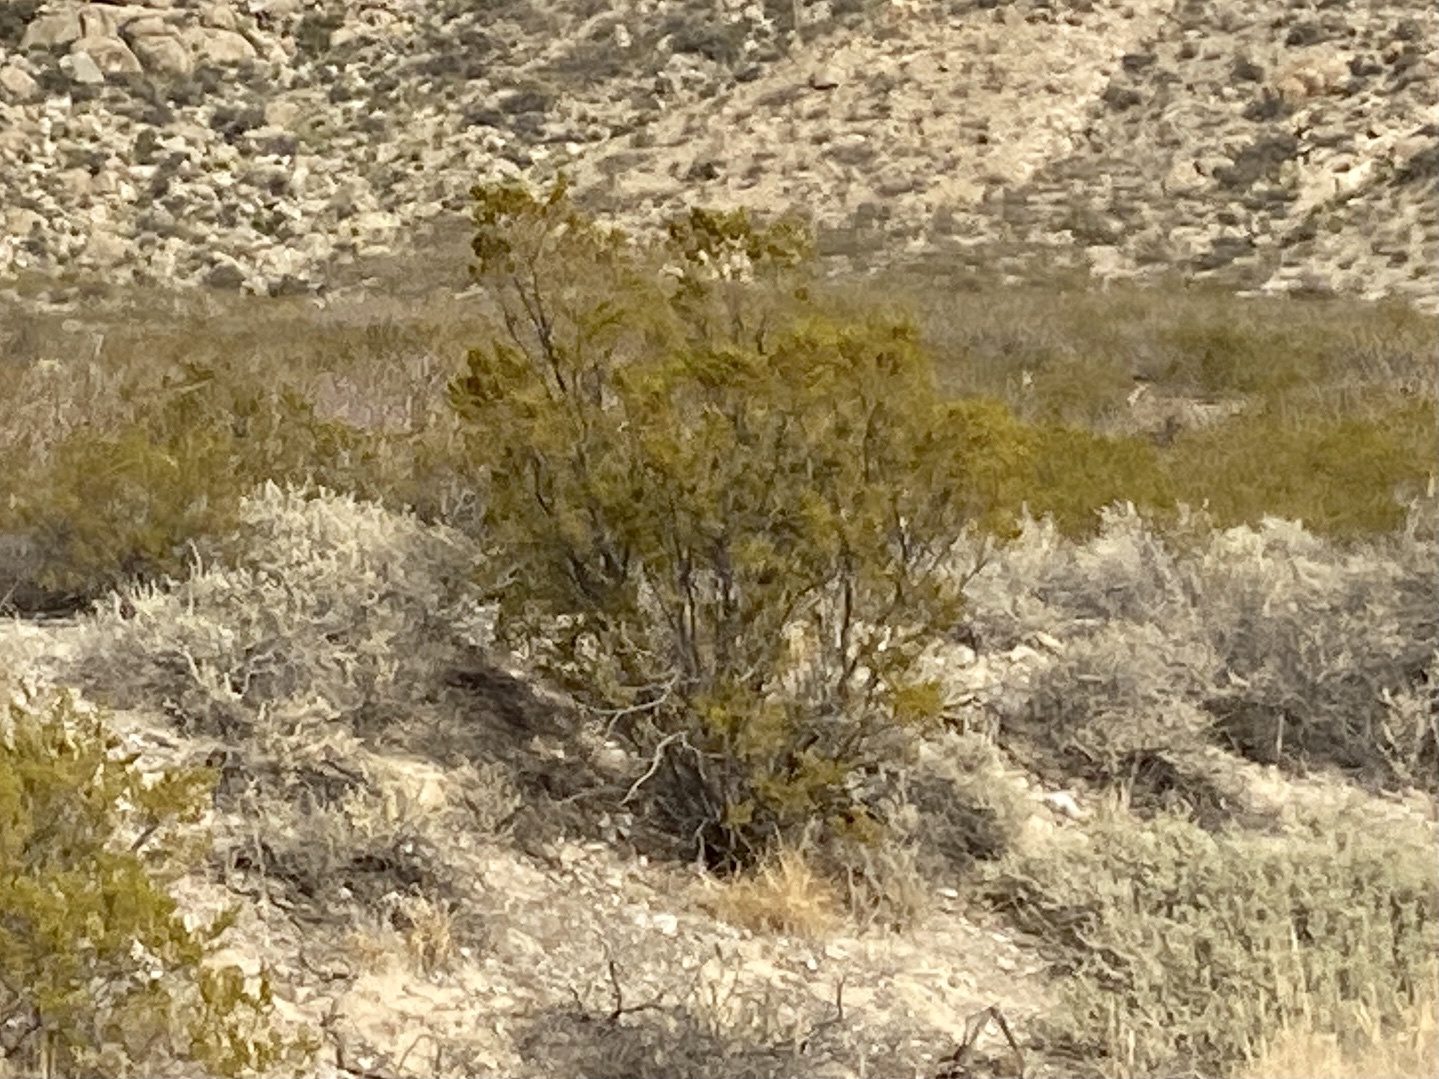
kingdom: Plantae
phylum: Tracheophyta
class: Magnoliopsida
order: Zygophyllales
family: Zygophyllaceae
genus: Larrea
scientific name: Larrea tridentata
